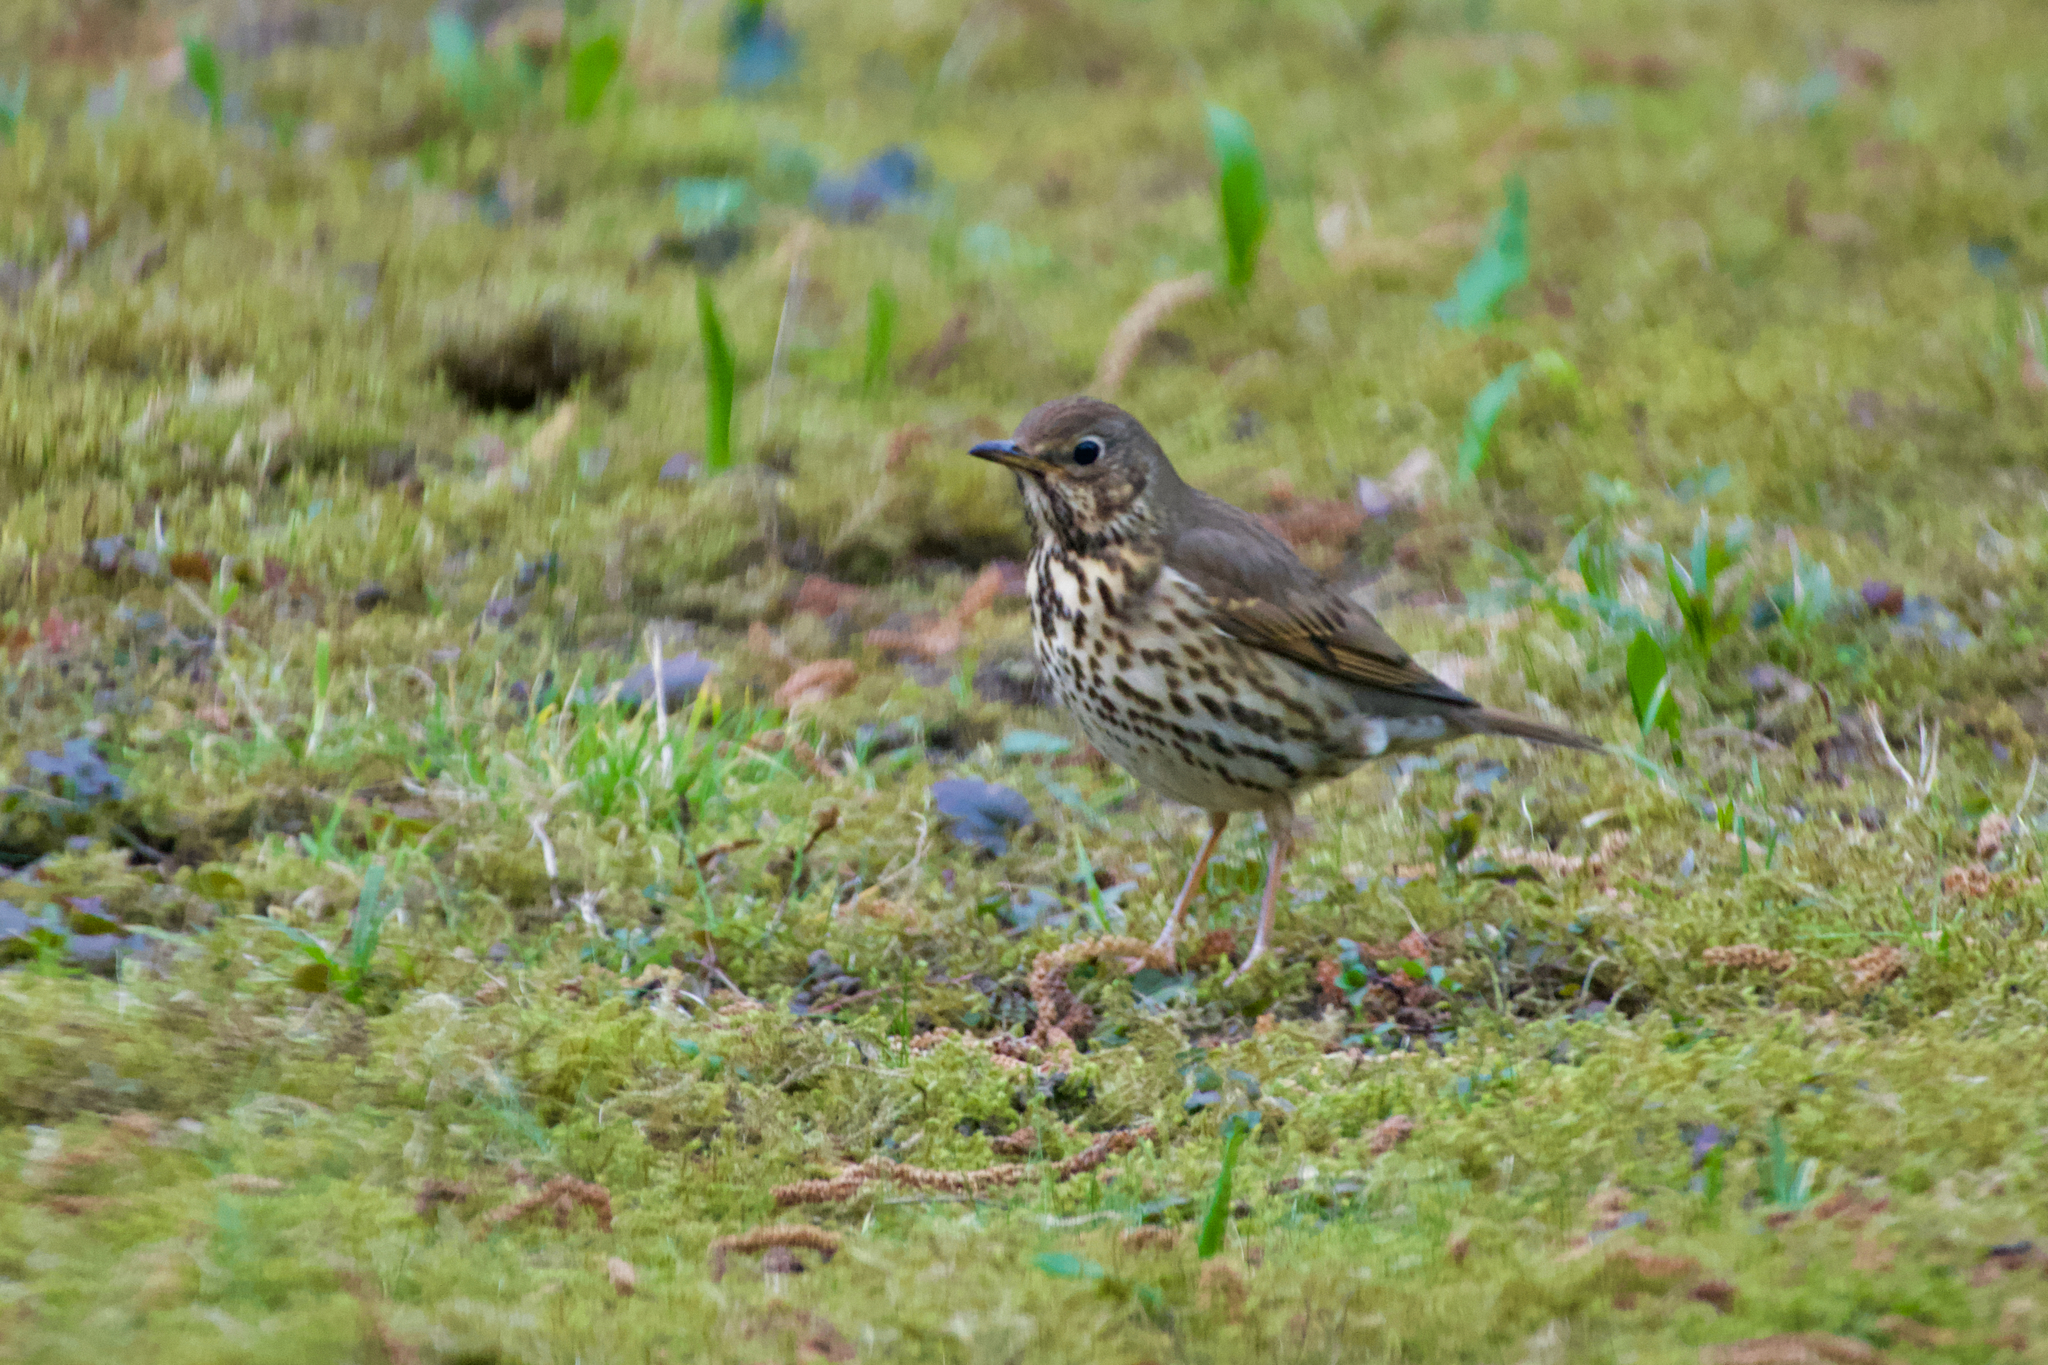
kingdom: Animalia
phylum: Chordata
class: Aves
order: Passeriformes
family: Turdidae
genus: Turdus
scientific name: Turdus philomelos
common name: Song thrush
